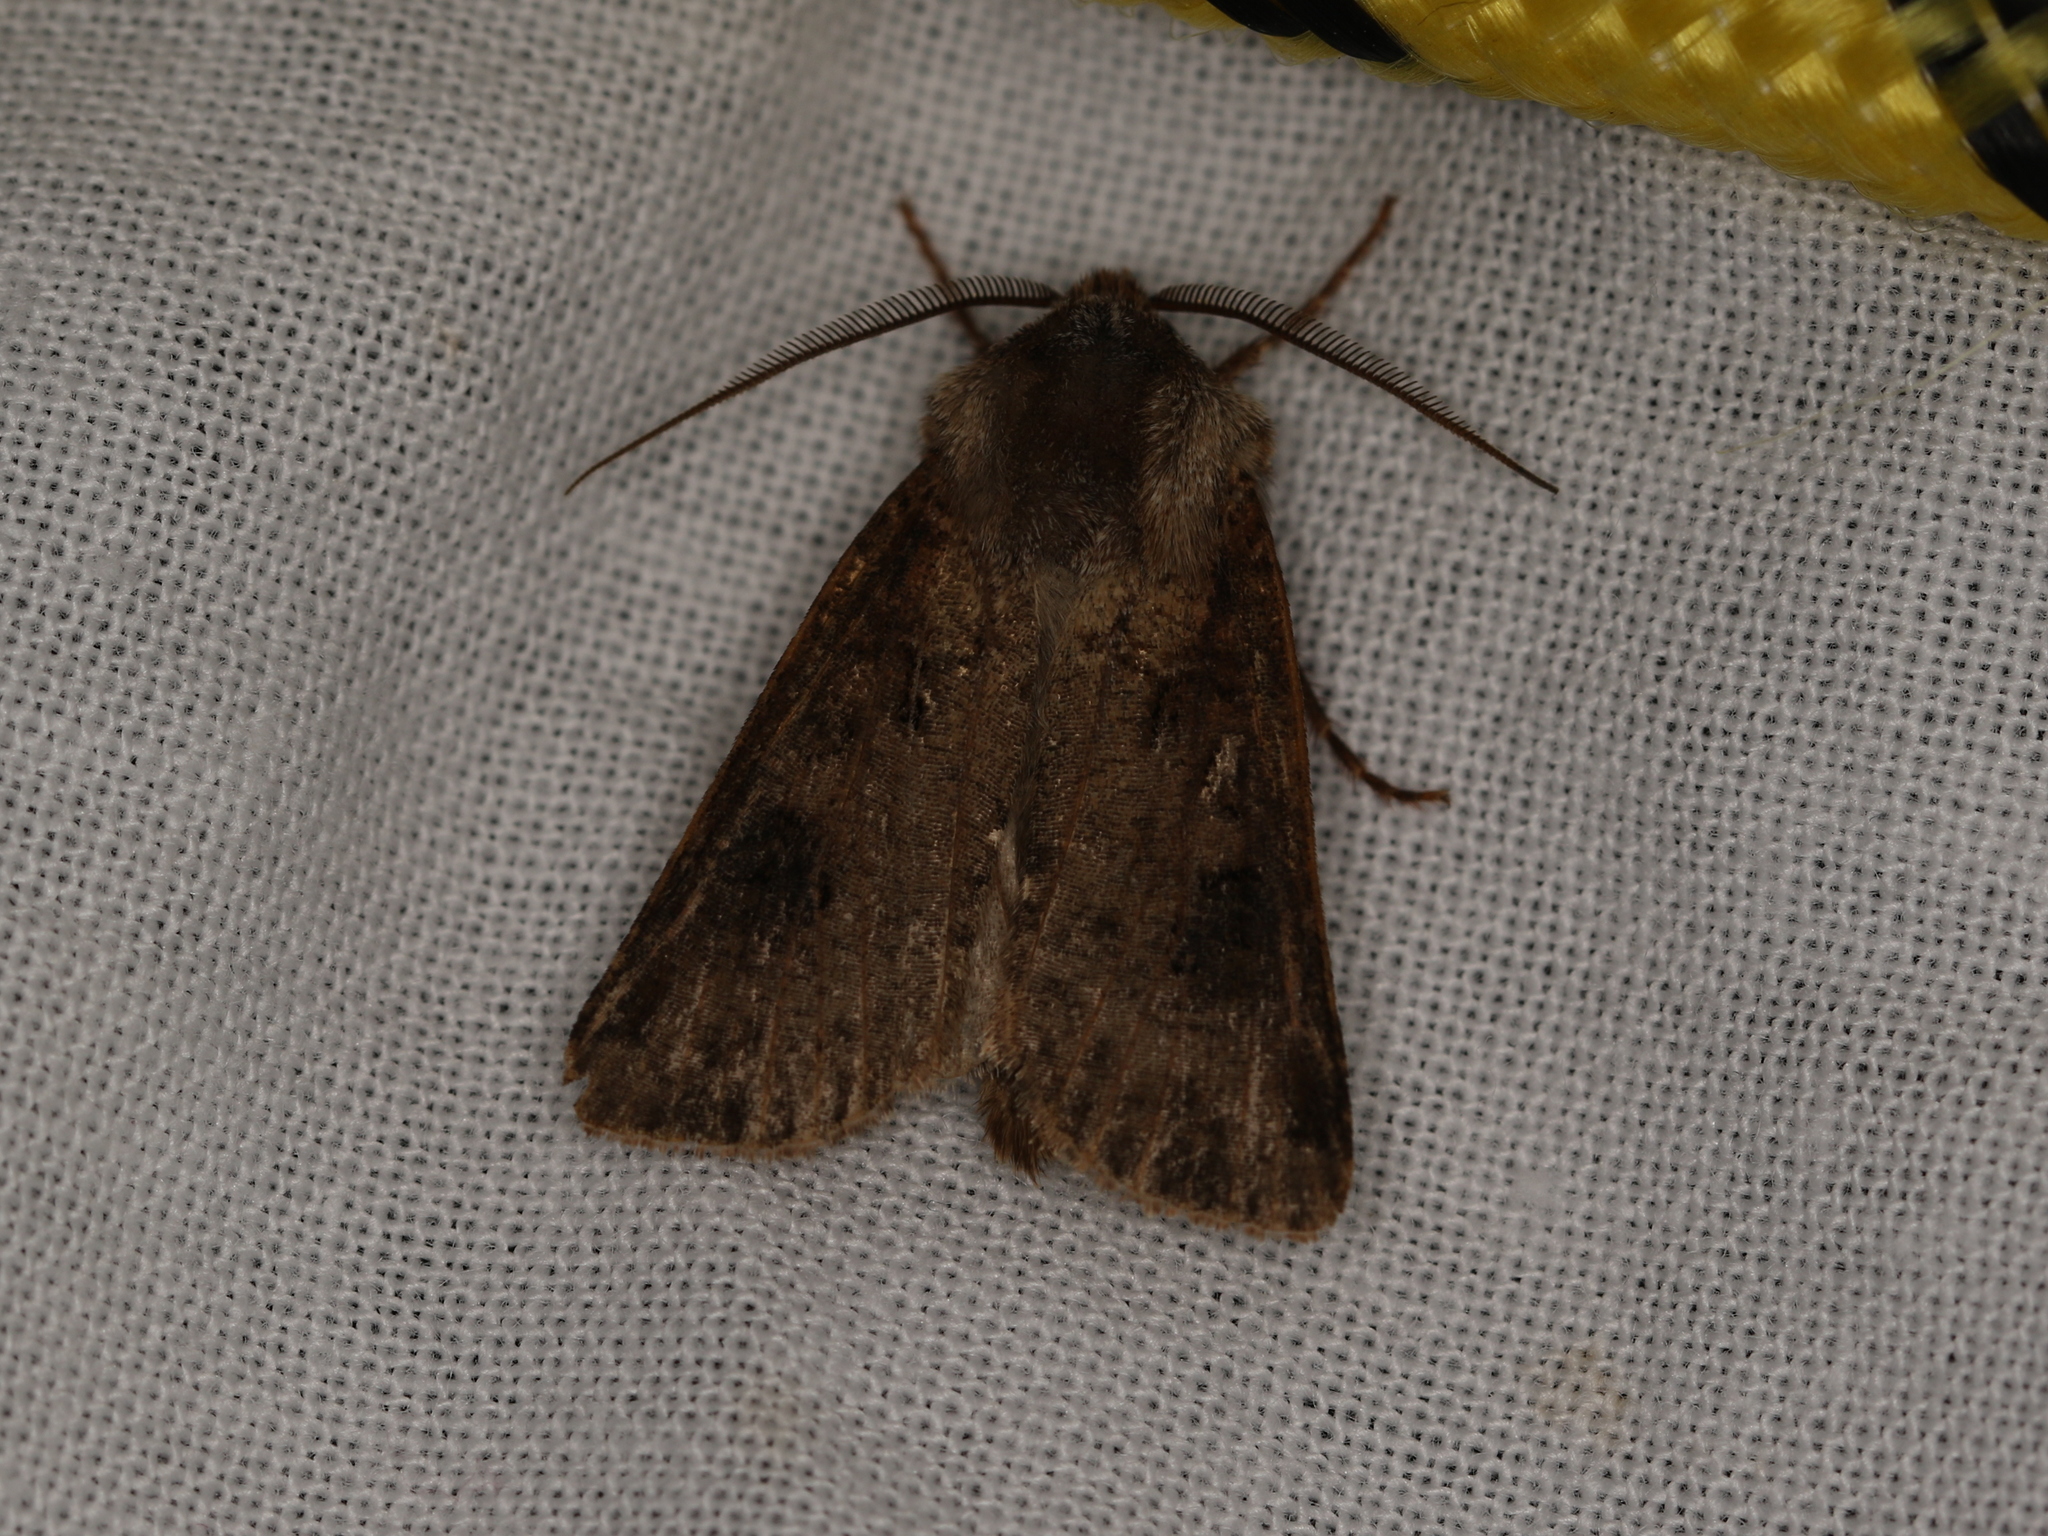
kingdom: Animalia
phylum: Arthropoda
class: Insecta
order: Lepidoptera
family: Noctuidae
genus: Agrotis
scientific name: Agrotis clavis
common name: Heart and club
